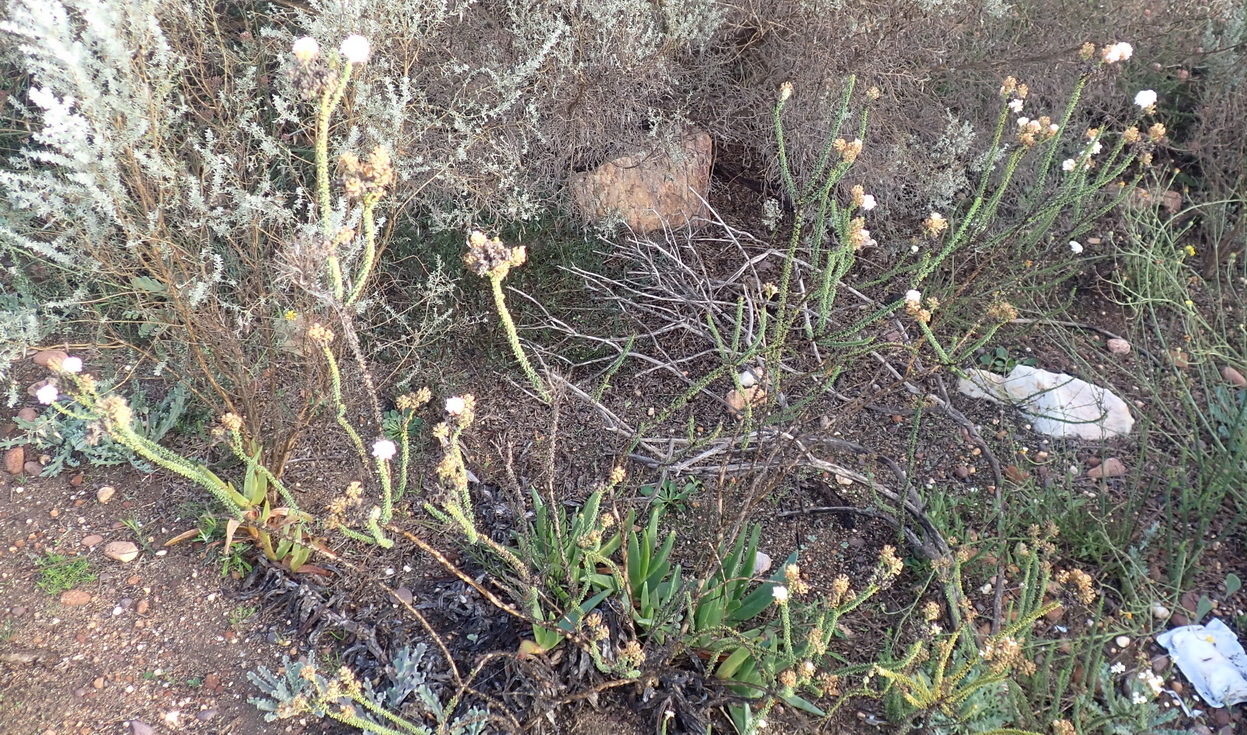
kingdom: Plantae
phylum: Tracheophyta
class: Magnoliopsida
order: Lamiales
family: Scrophulariaceae
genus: Selago
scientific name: Selago karooica
